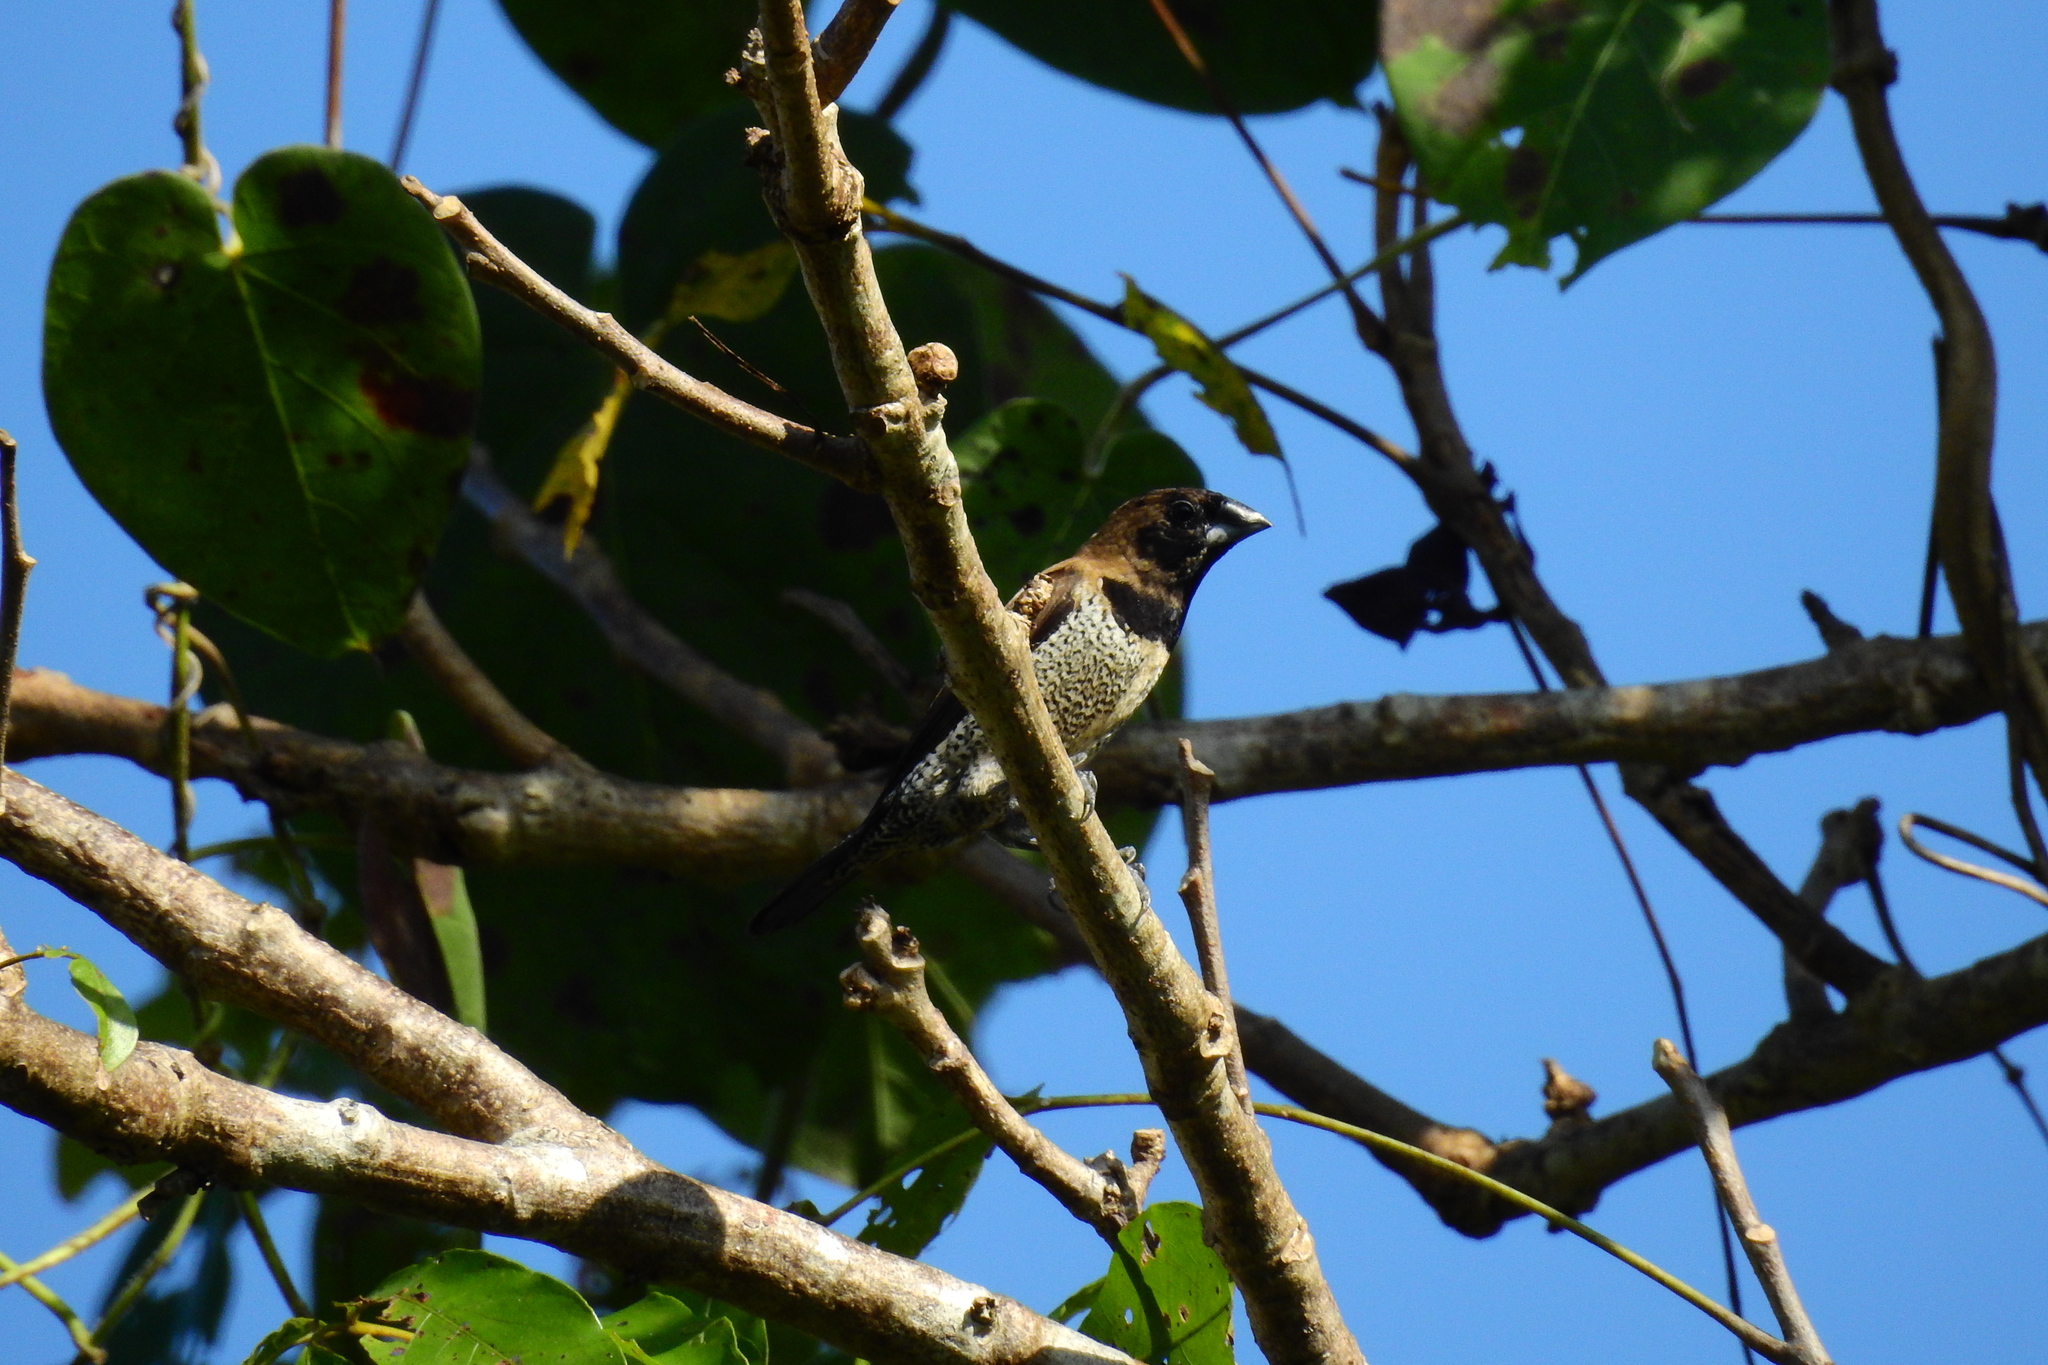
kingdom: Animalia
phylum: Chordata
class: Aves
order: Passeriformes
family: Estrildidae
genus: Lonchura
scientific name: Lonchura molucca
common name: Black-faced munia
